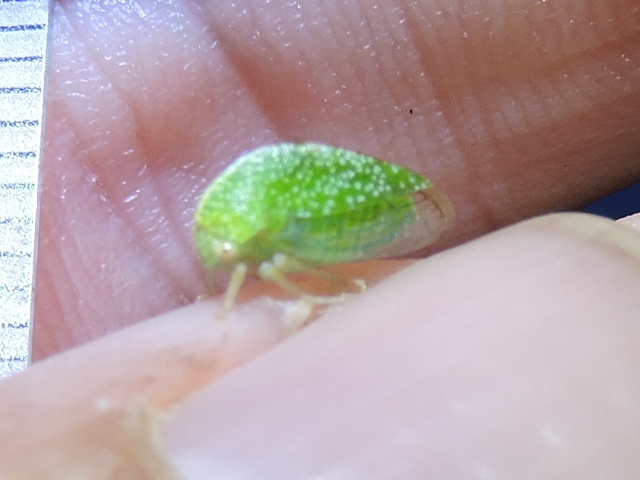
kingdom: Animalia
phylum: Arthropoda
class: Insecta
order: Hemiptera
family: Membracidae
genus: Cyrtolobus
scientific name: Cyrtolobus dixianus
